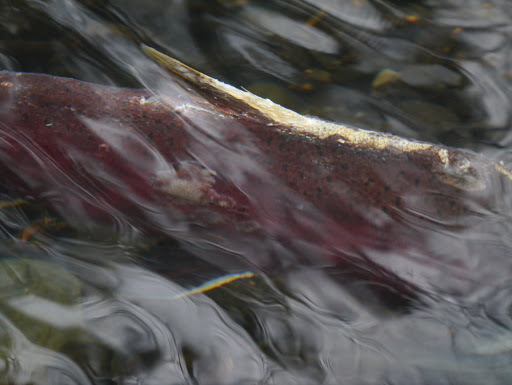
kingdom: Animalia
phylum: Chordata
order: Salmoniformes
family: Salmonidae
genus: Oncorhynchus
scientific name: Oncorhynchus kisutch
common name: Coho salmon
